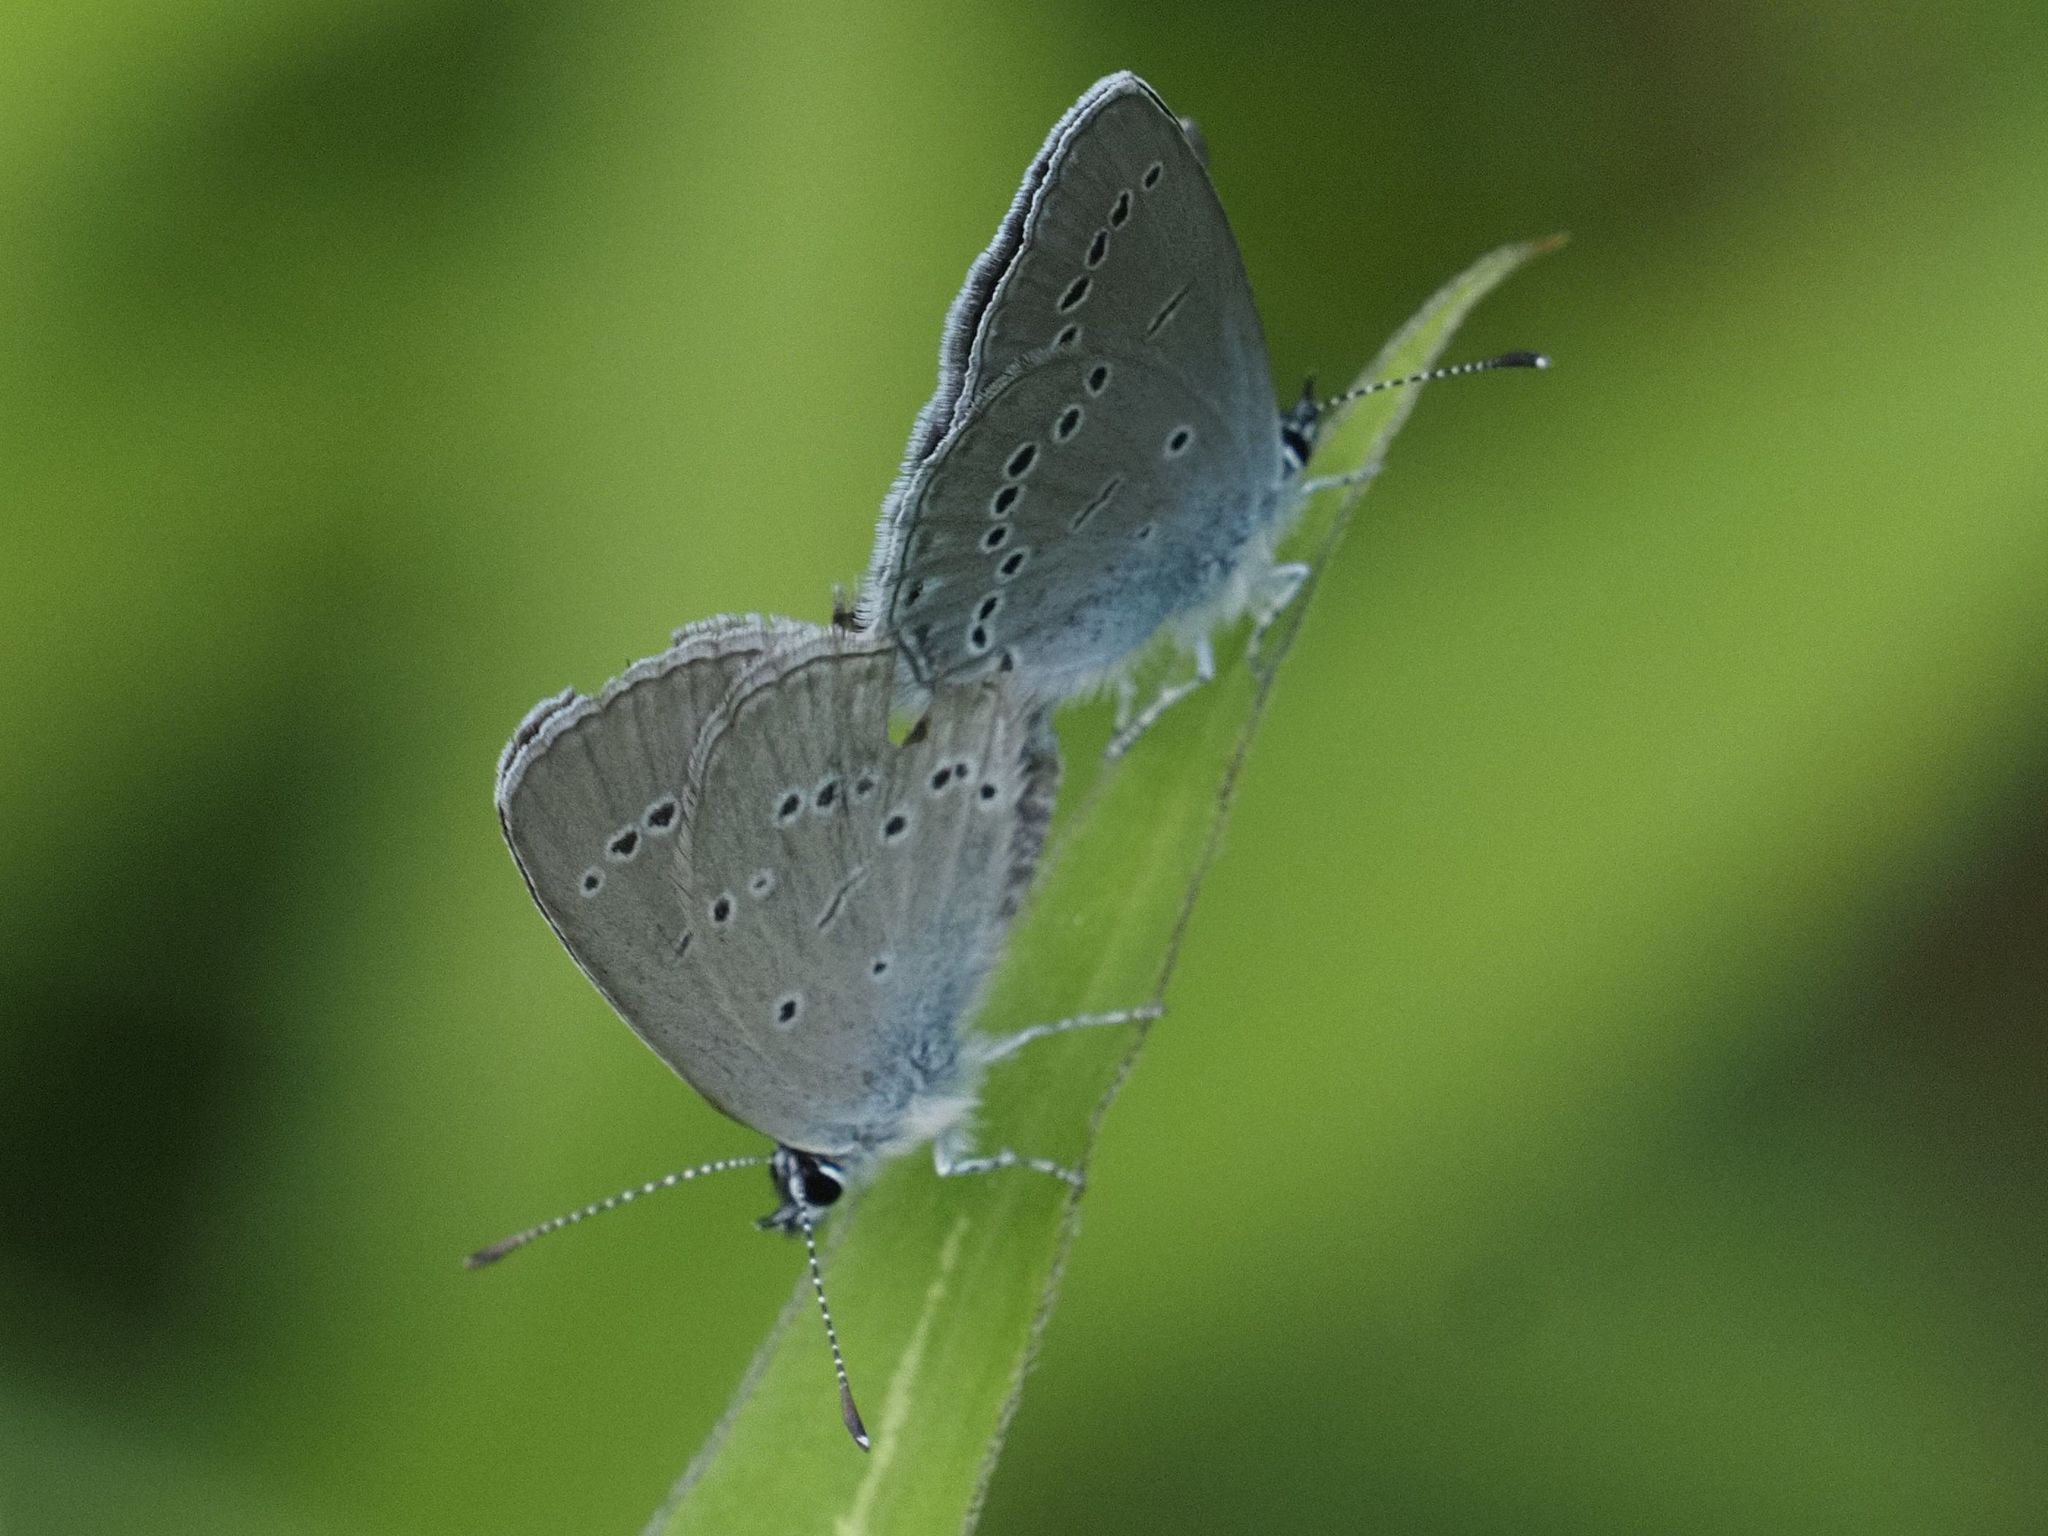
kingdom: Animalia
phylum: Arthropoda
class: Insecta
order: Lepidoptera
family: Lycaenidae
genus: Cupido
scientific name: Cupido minimus
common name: Small blue
